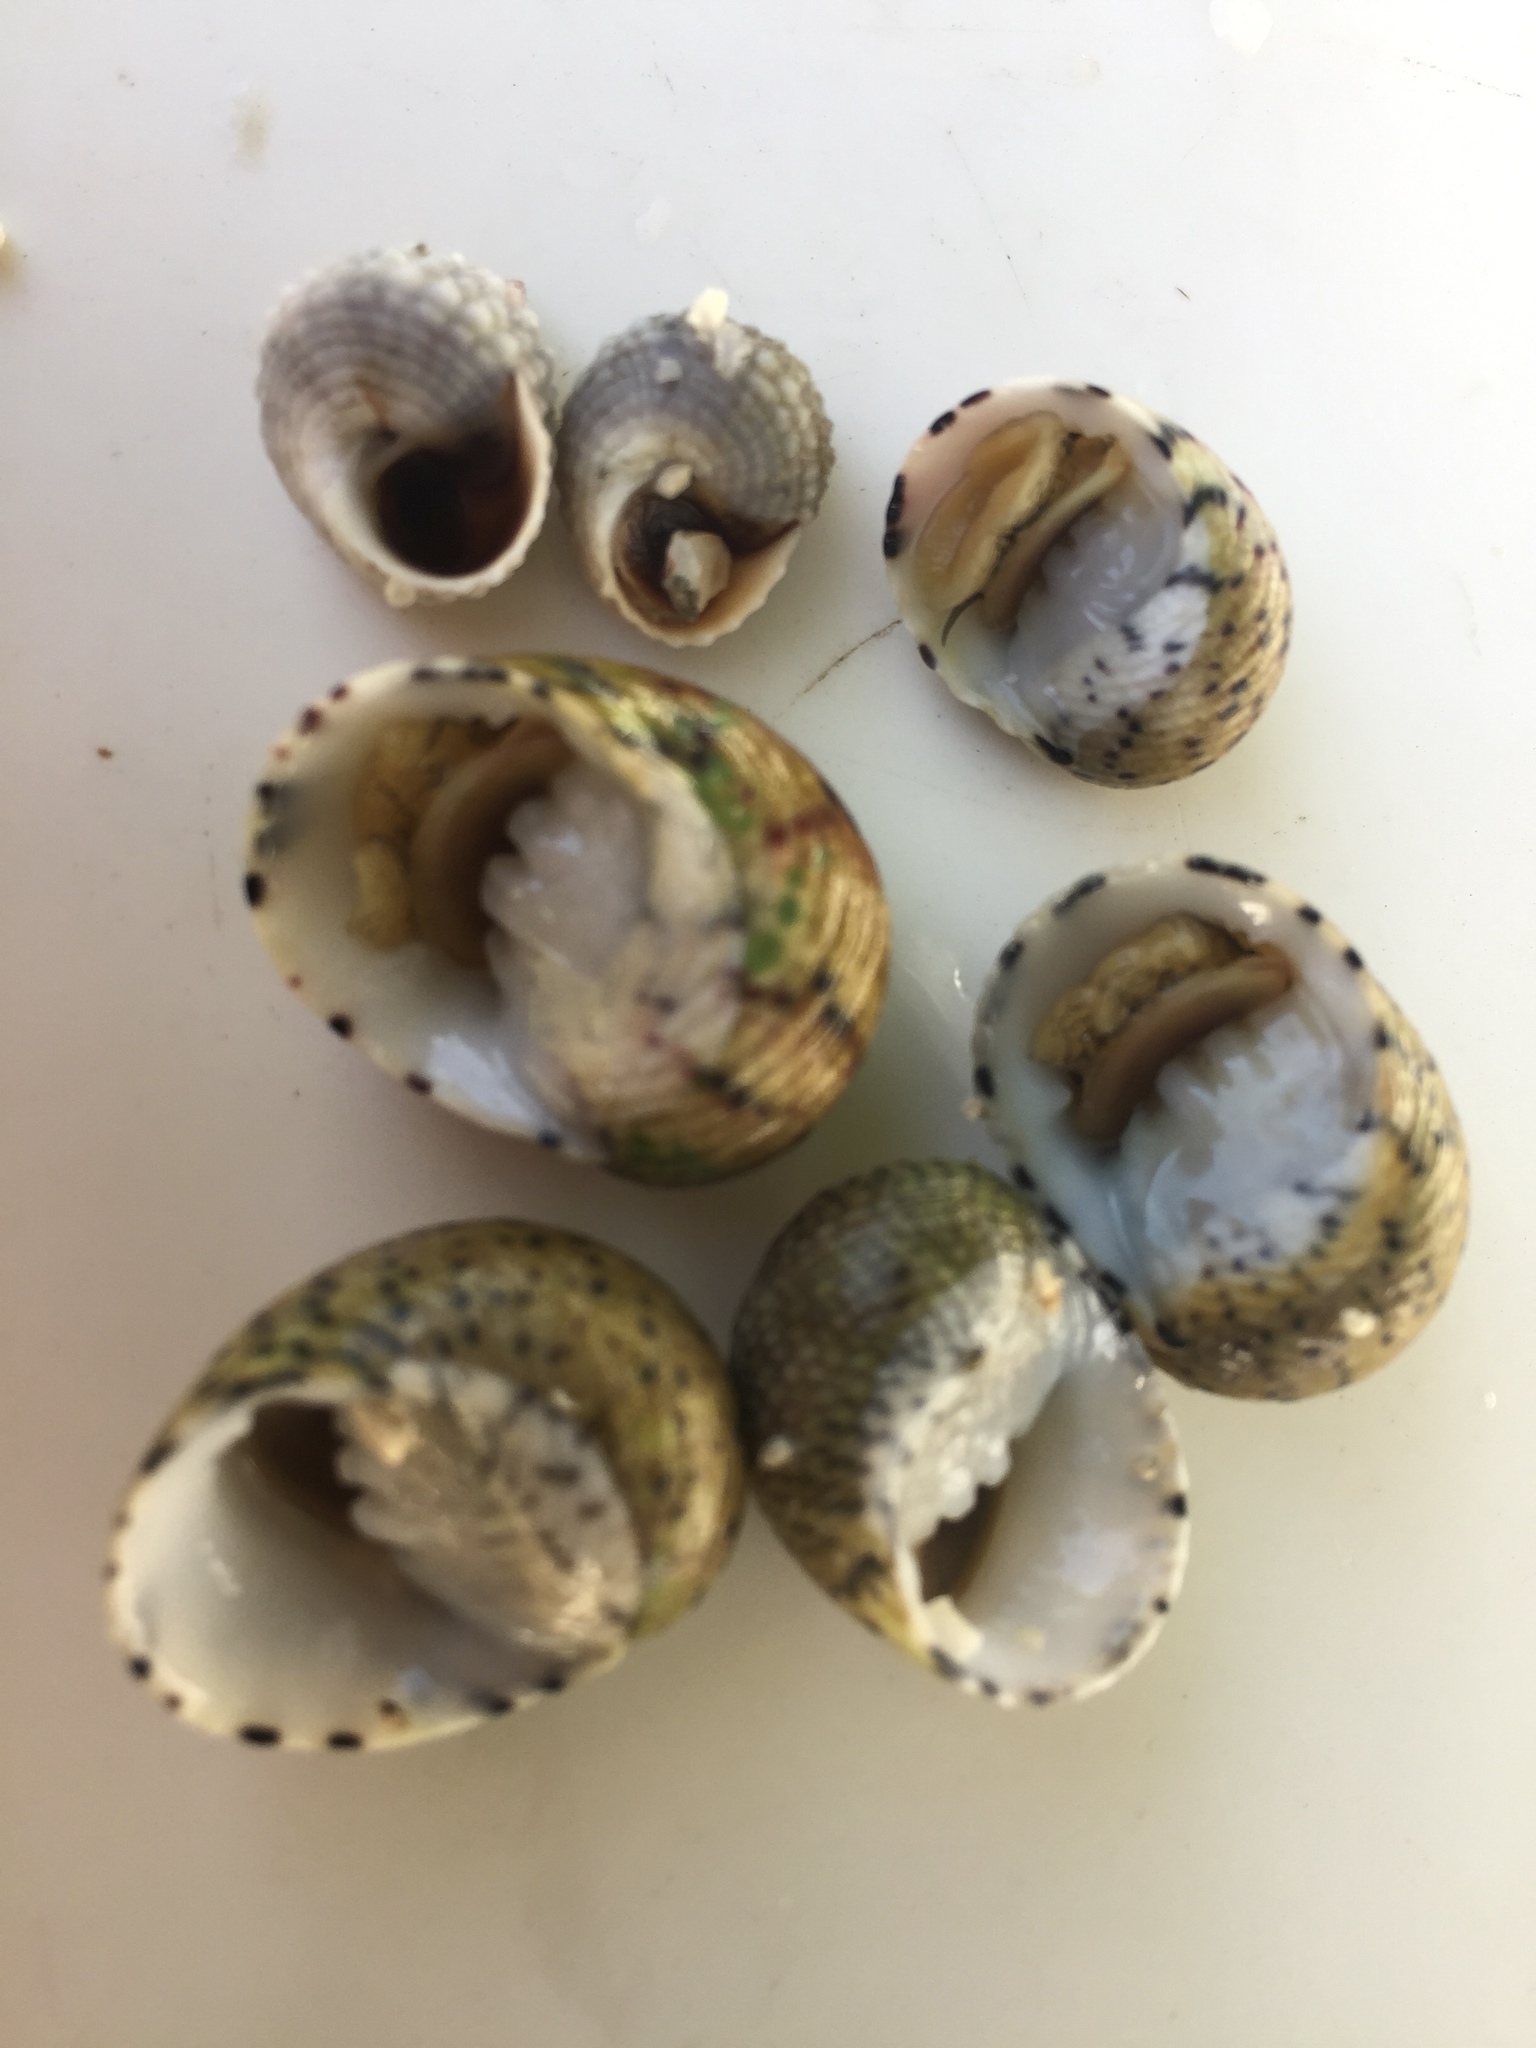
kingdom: Animalia
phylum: Mollusca
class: Gastropoda
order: Cycloneritida
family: Neritidae
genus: Nerita
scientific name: Nerita versicolor
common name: Four-tooth nerite
